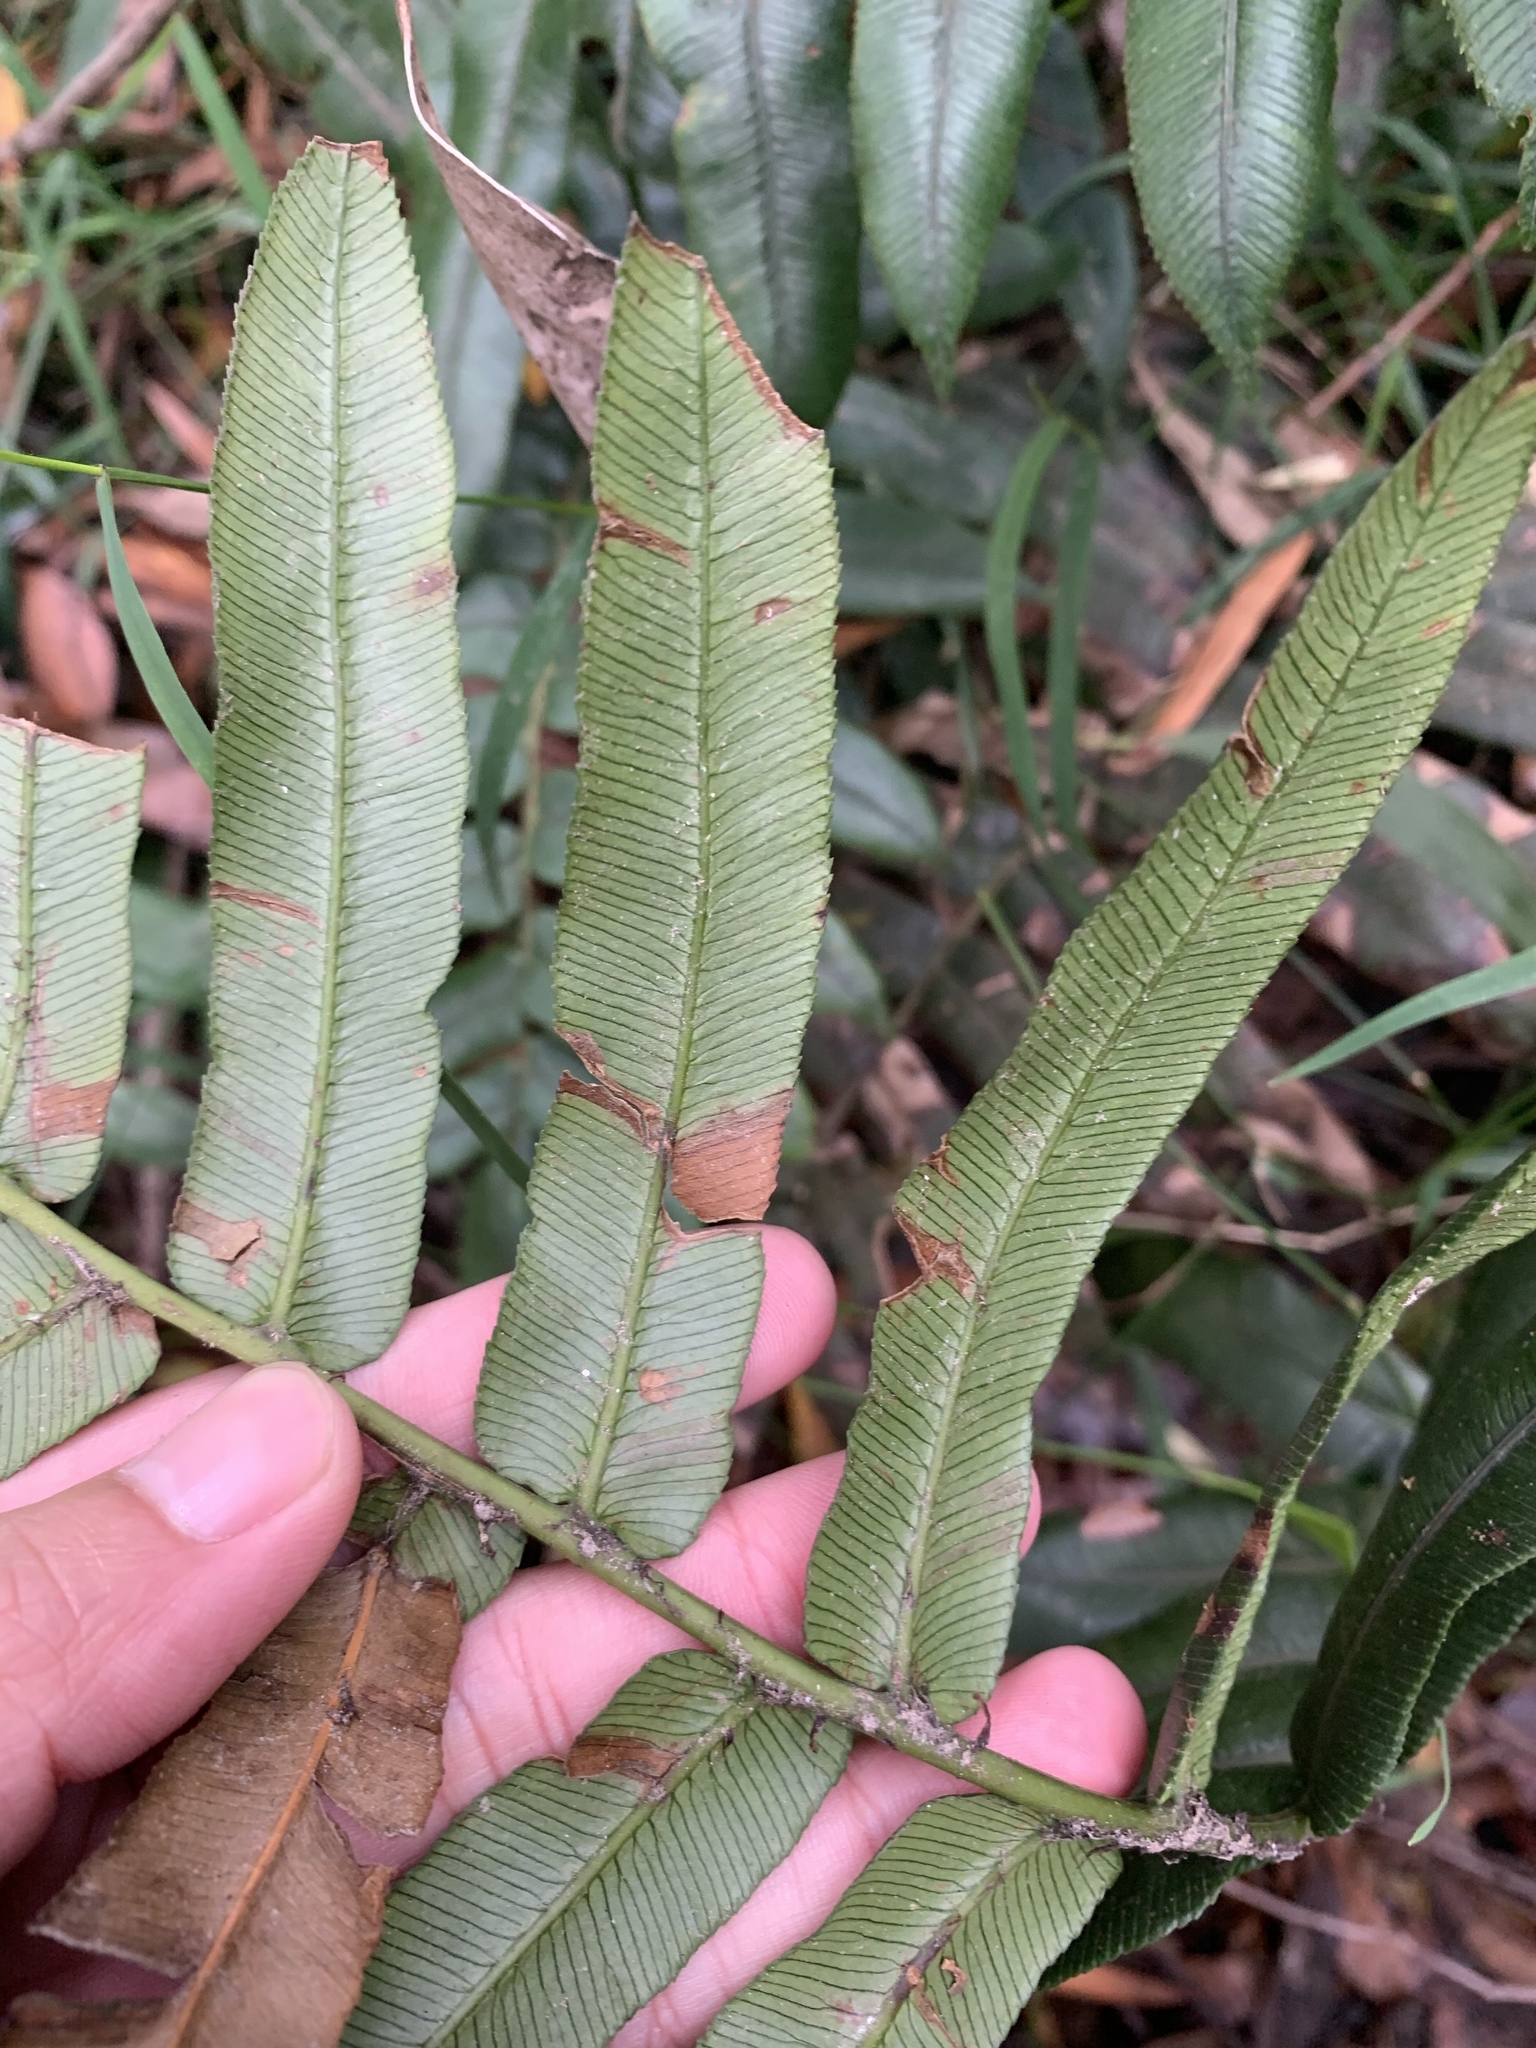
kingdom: Plantae
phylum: Tracheophyta
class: Polypodiopsida
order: Polypodiales
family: Blechnaceae
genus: Parablechnum
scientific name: Parablechnum wattsii
